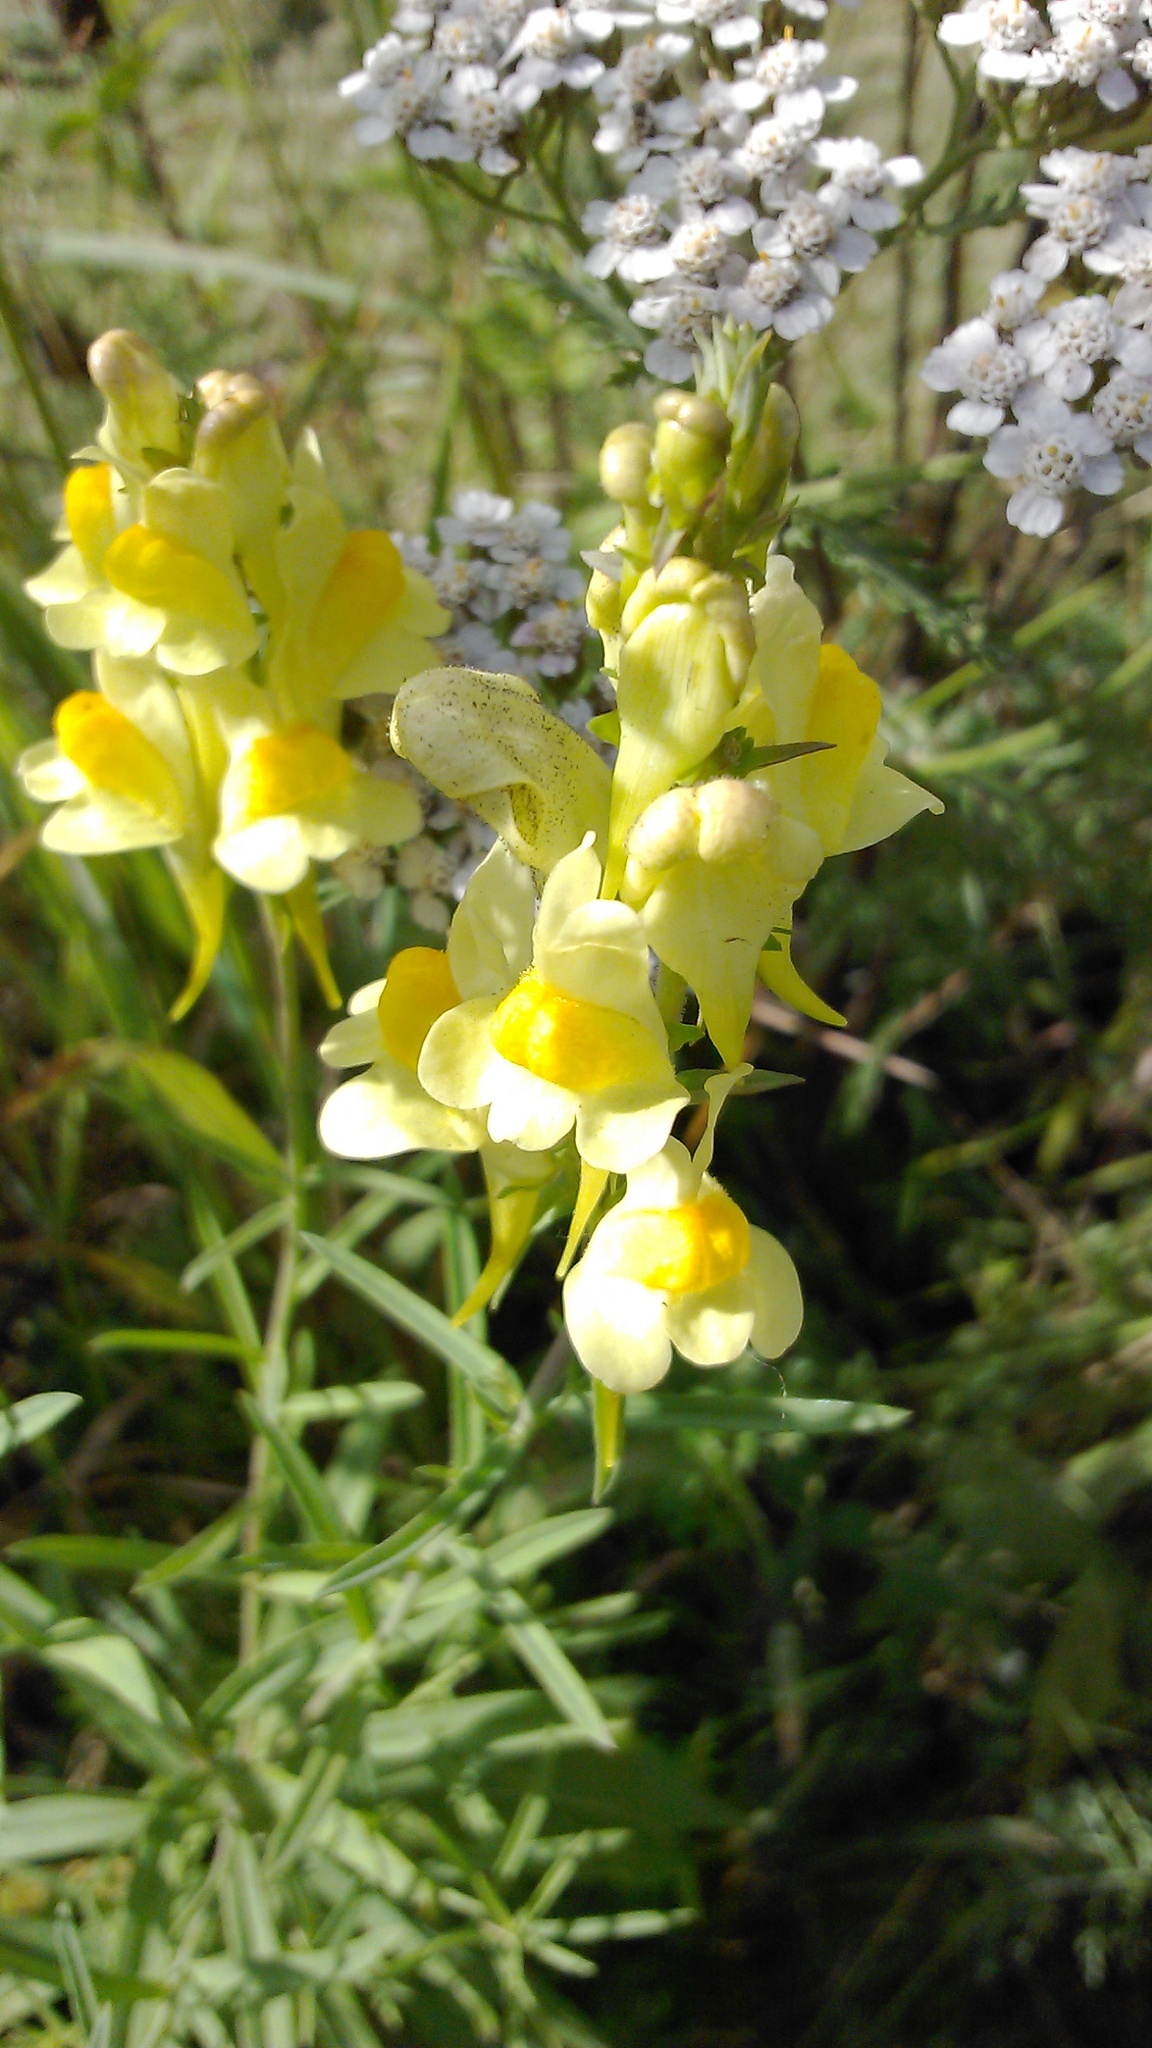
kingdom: Plantae
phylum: Tracheophyta
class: Magnoliopsida
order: Lamiales
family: Plantaginaceae
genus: Linaria
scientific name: Linaria vulgaris
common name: Butter and eggs
